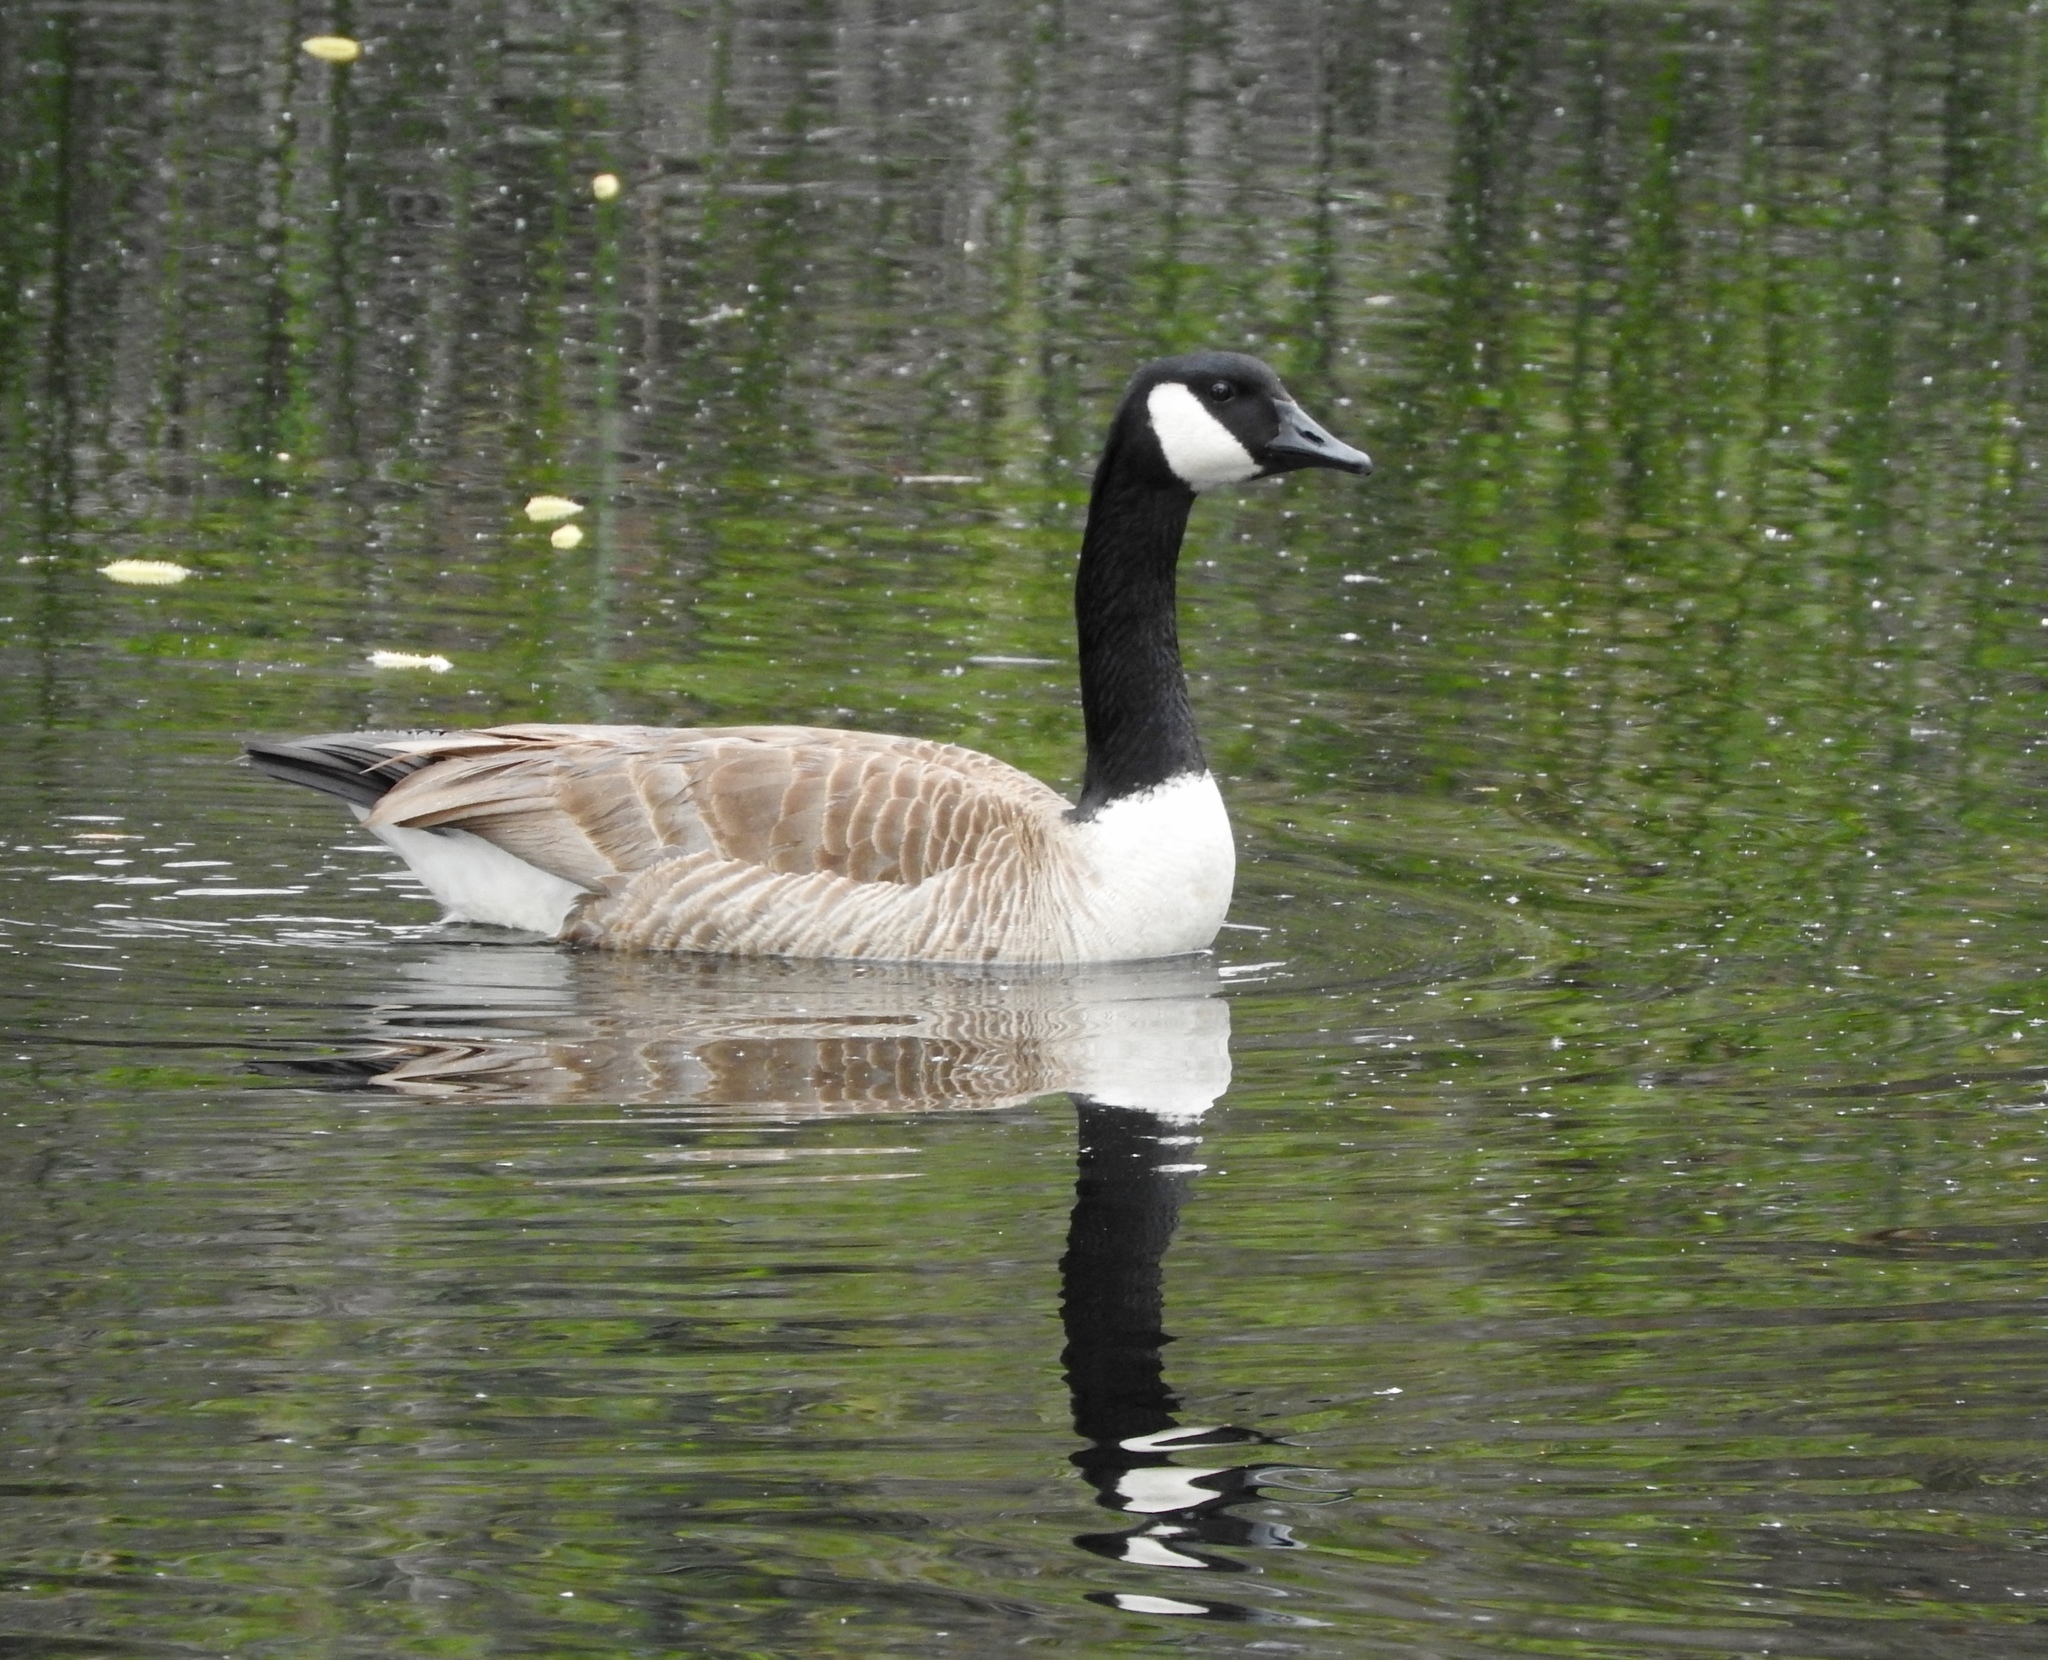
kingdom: Animalia
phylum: Chordata
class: Aves
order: Anseriformes
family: Anatidae
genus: Branta
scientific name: Branta canadensis
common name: Canada goose
